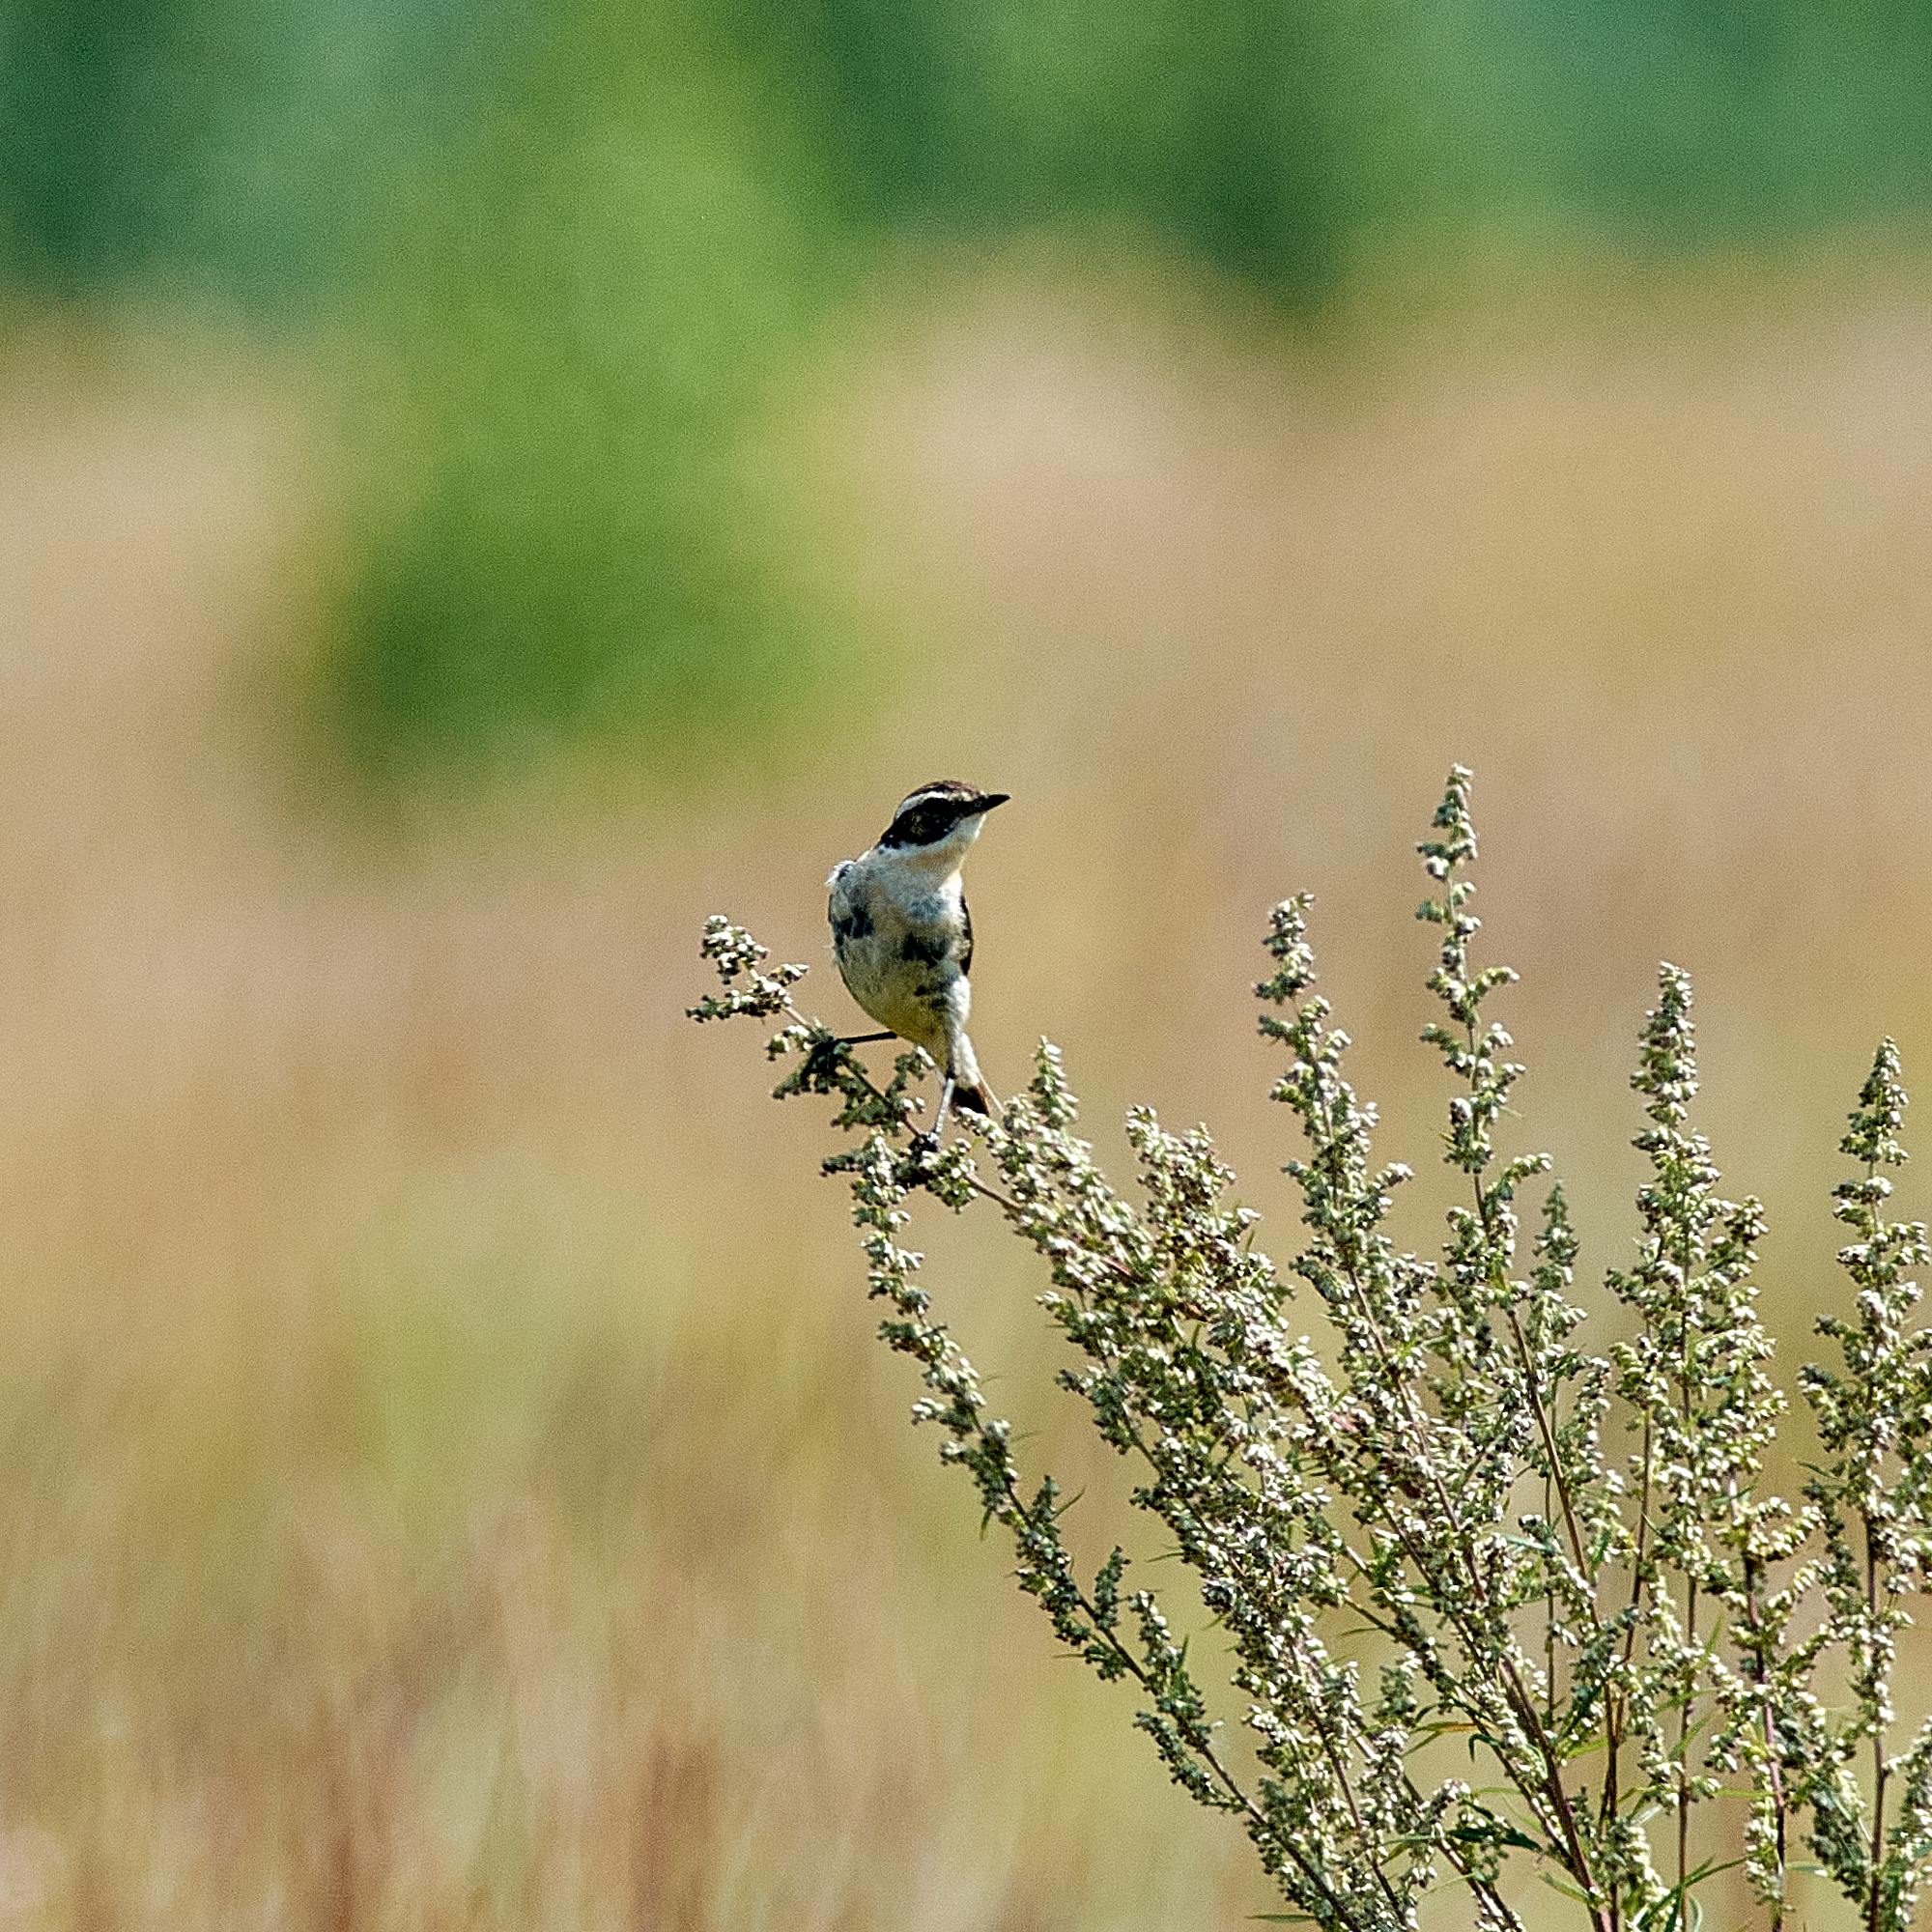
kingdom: Animalia
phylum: Chordata
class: Aves
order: Passeriformes
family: Muscicapidae
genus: Saxicola
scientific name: Saxicola rubetra
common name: Whinchat
